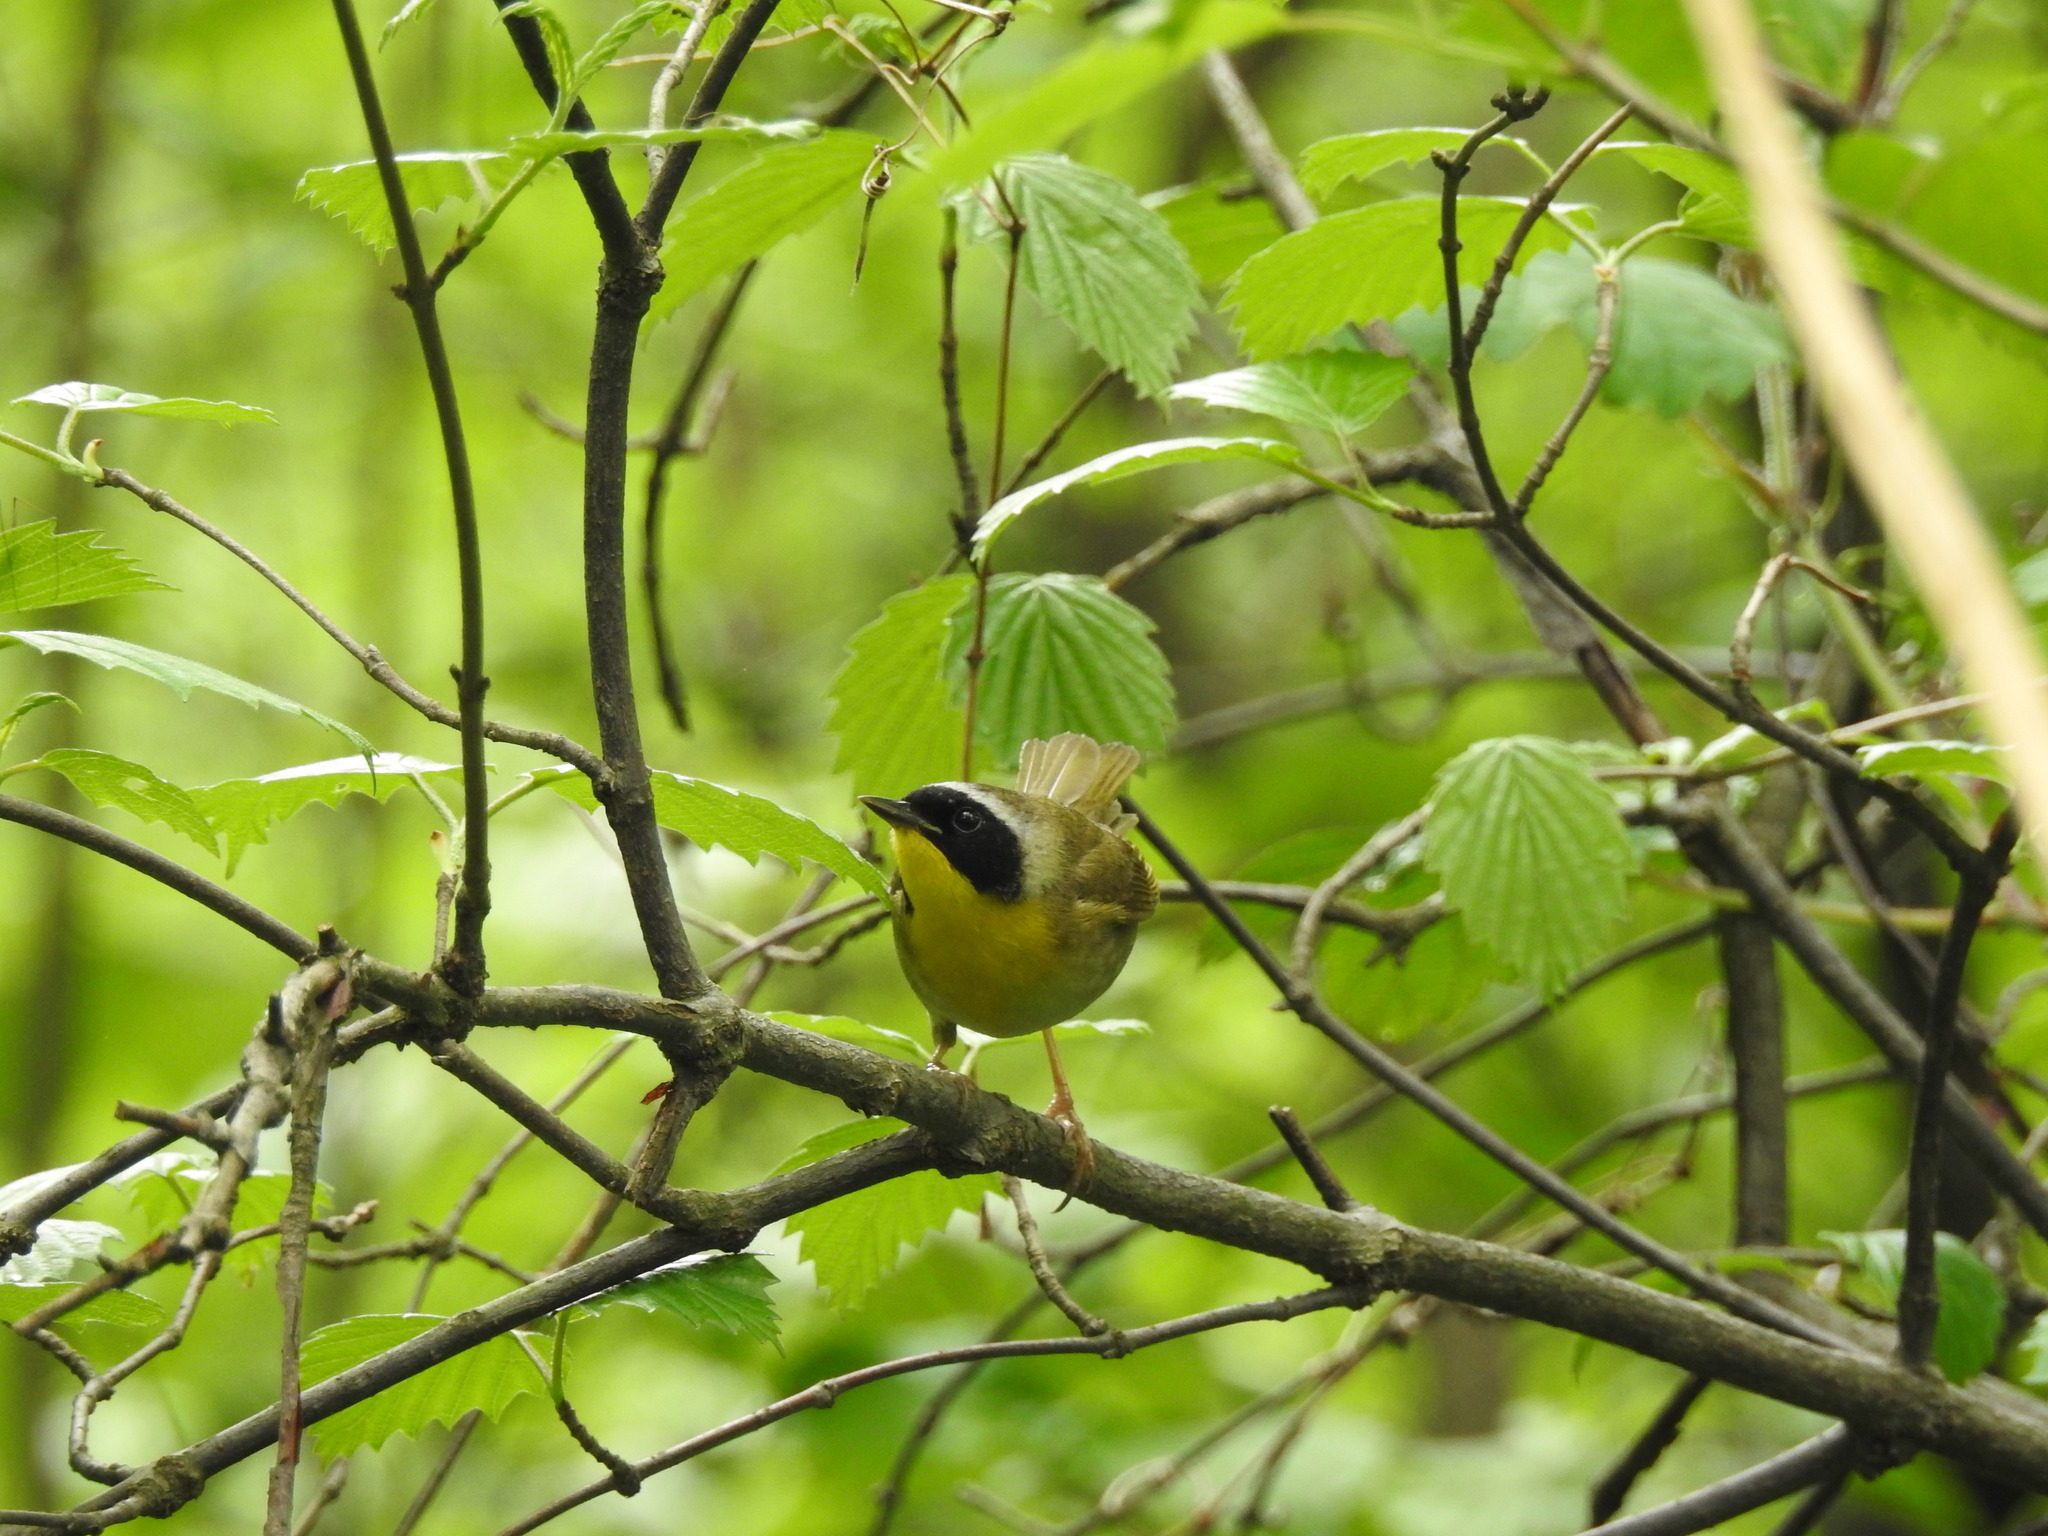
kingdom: Animalia
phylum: Chordata
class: Aves
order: Passeriformes
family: Parulidae
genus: Geothlypis
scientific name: Geothlypis trichas
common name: Common yellowthroat
